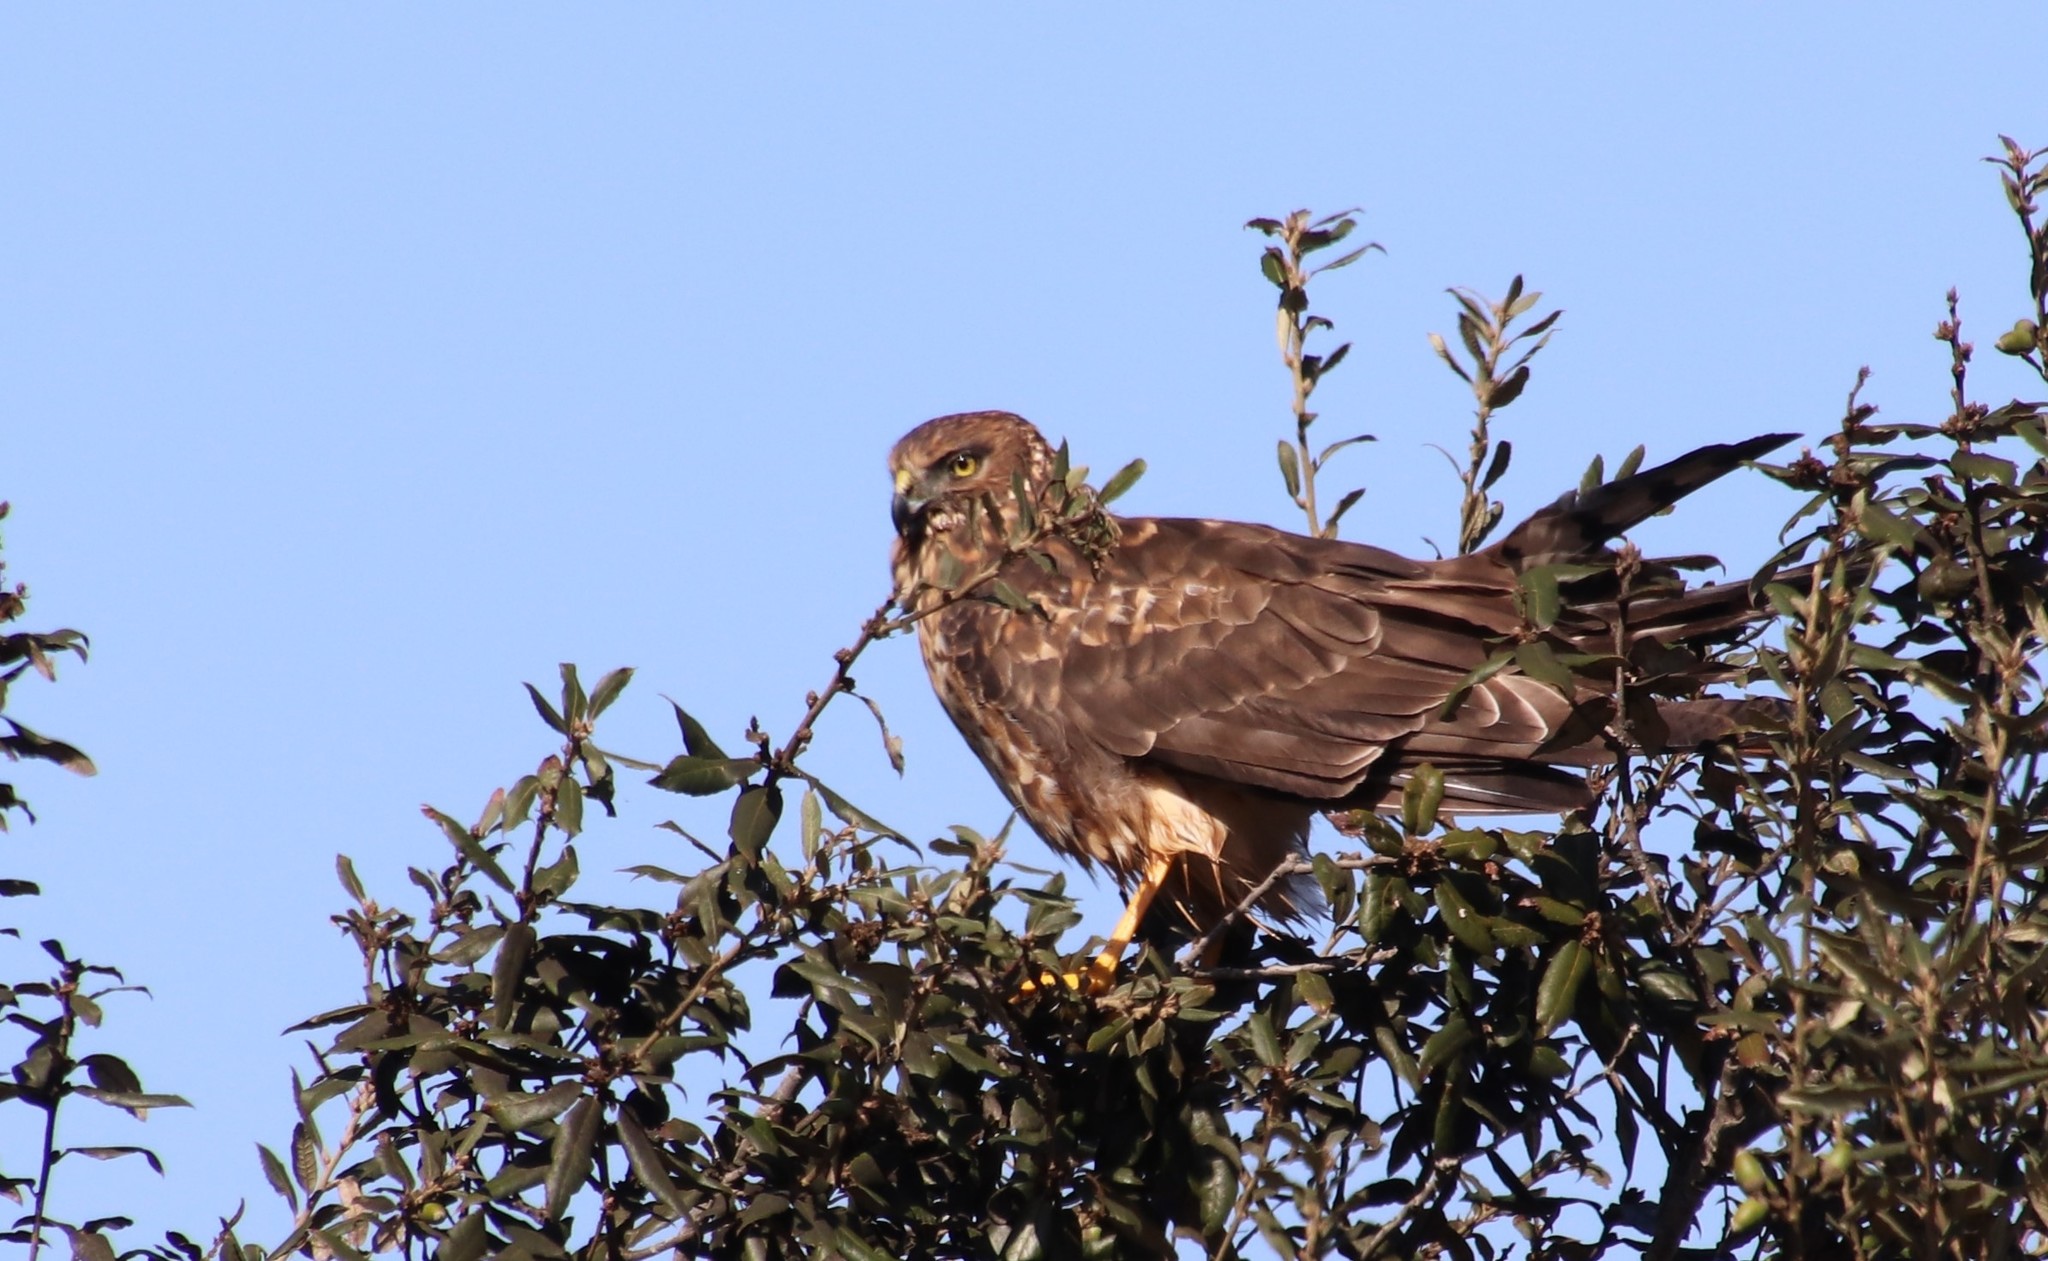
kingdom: Animalia
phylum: Chordata
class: Aves
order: Accipitriformes
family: Accipitridae
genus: Circus
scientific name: Circus cyaneus
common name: Hen harrier
